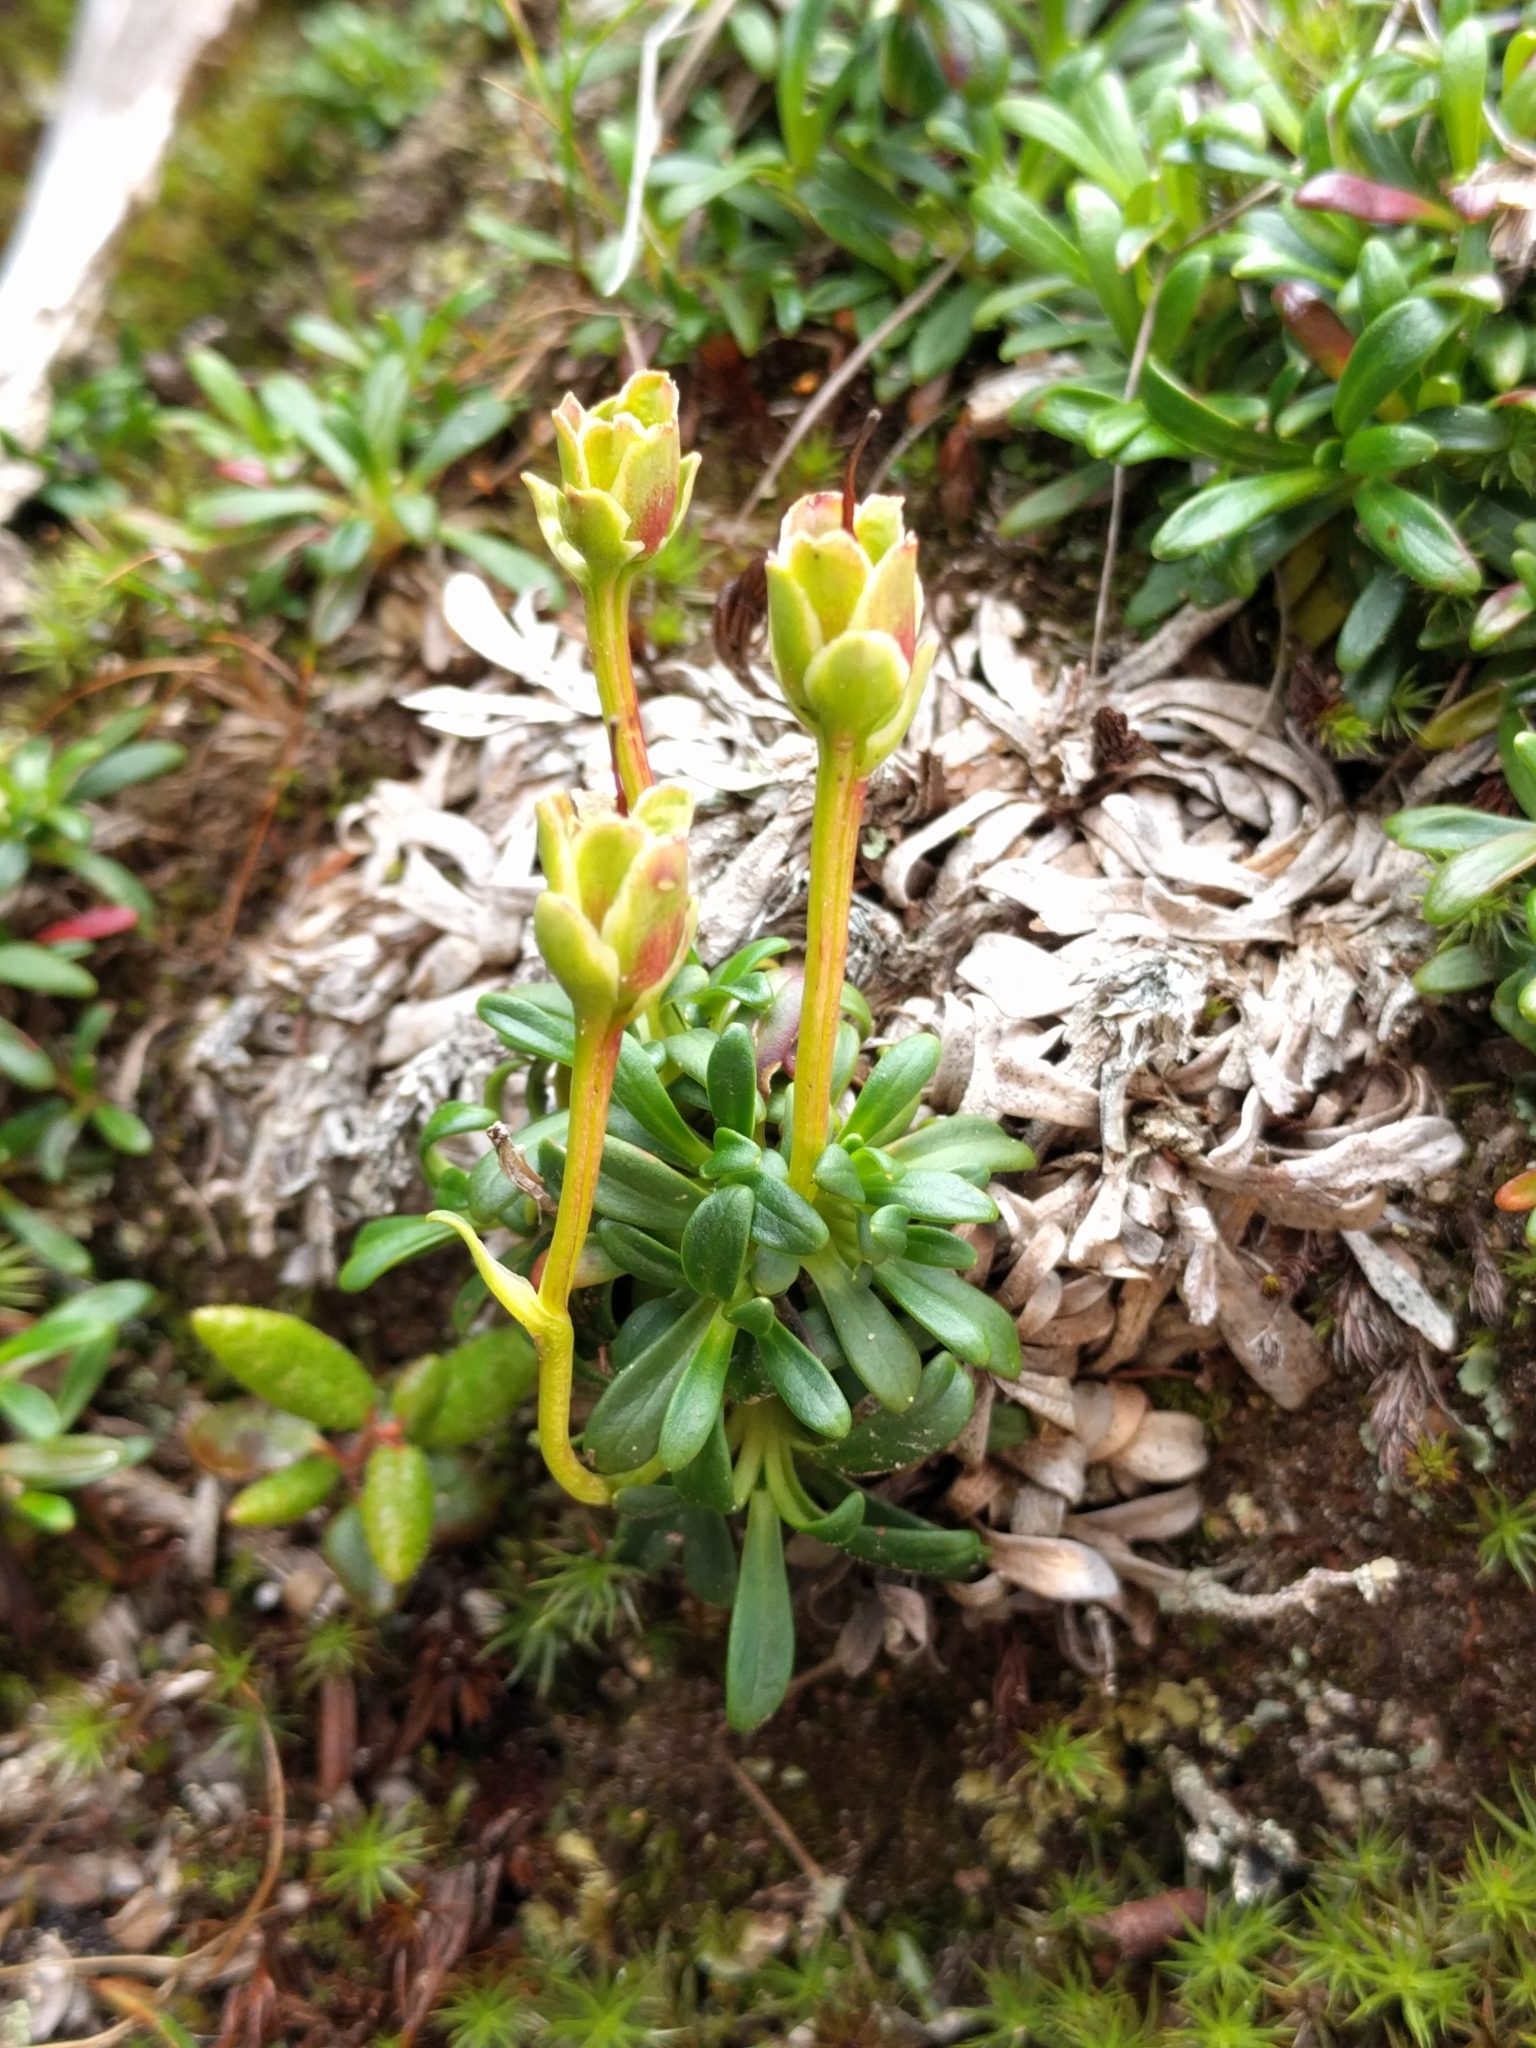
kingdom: Plantae
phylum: Tracheophyta
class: Magnoliopsida
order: Ericales
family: Diapensiaceae
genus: Diapensia
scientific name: Diapensia lapponica
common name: Diapensia
